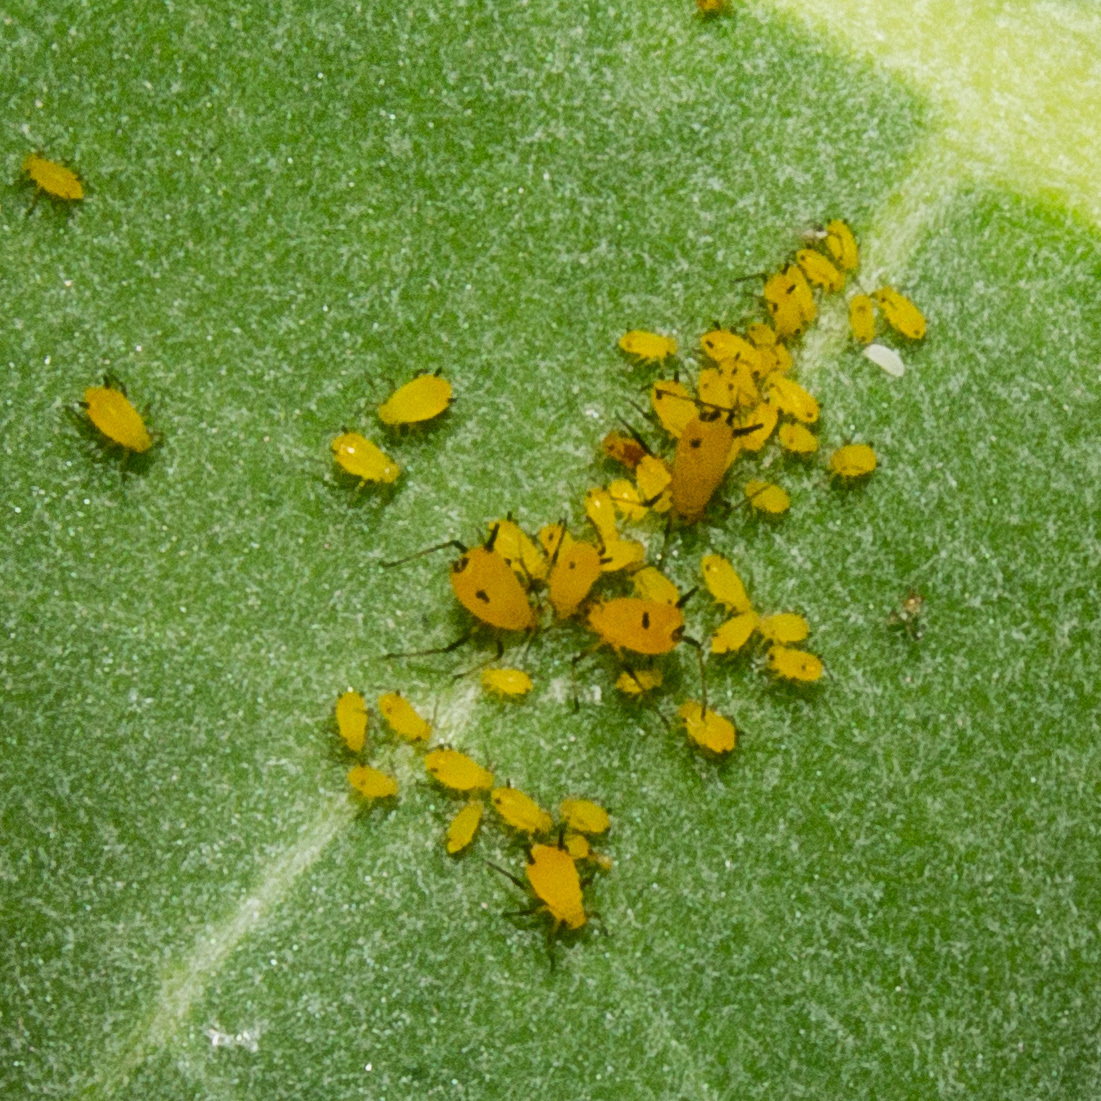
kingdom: Animalia
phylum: Arthropoda
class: Insecta
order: Hemiptera
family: Aphididae
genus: Aphis
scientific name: Aphis nerii
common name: Oleander aphid
